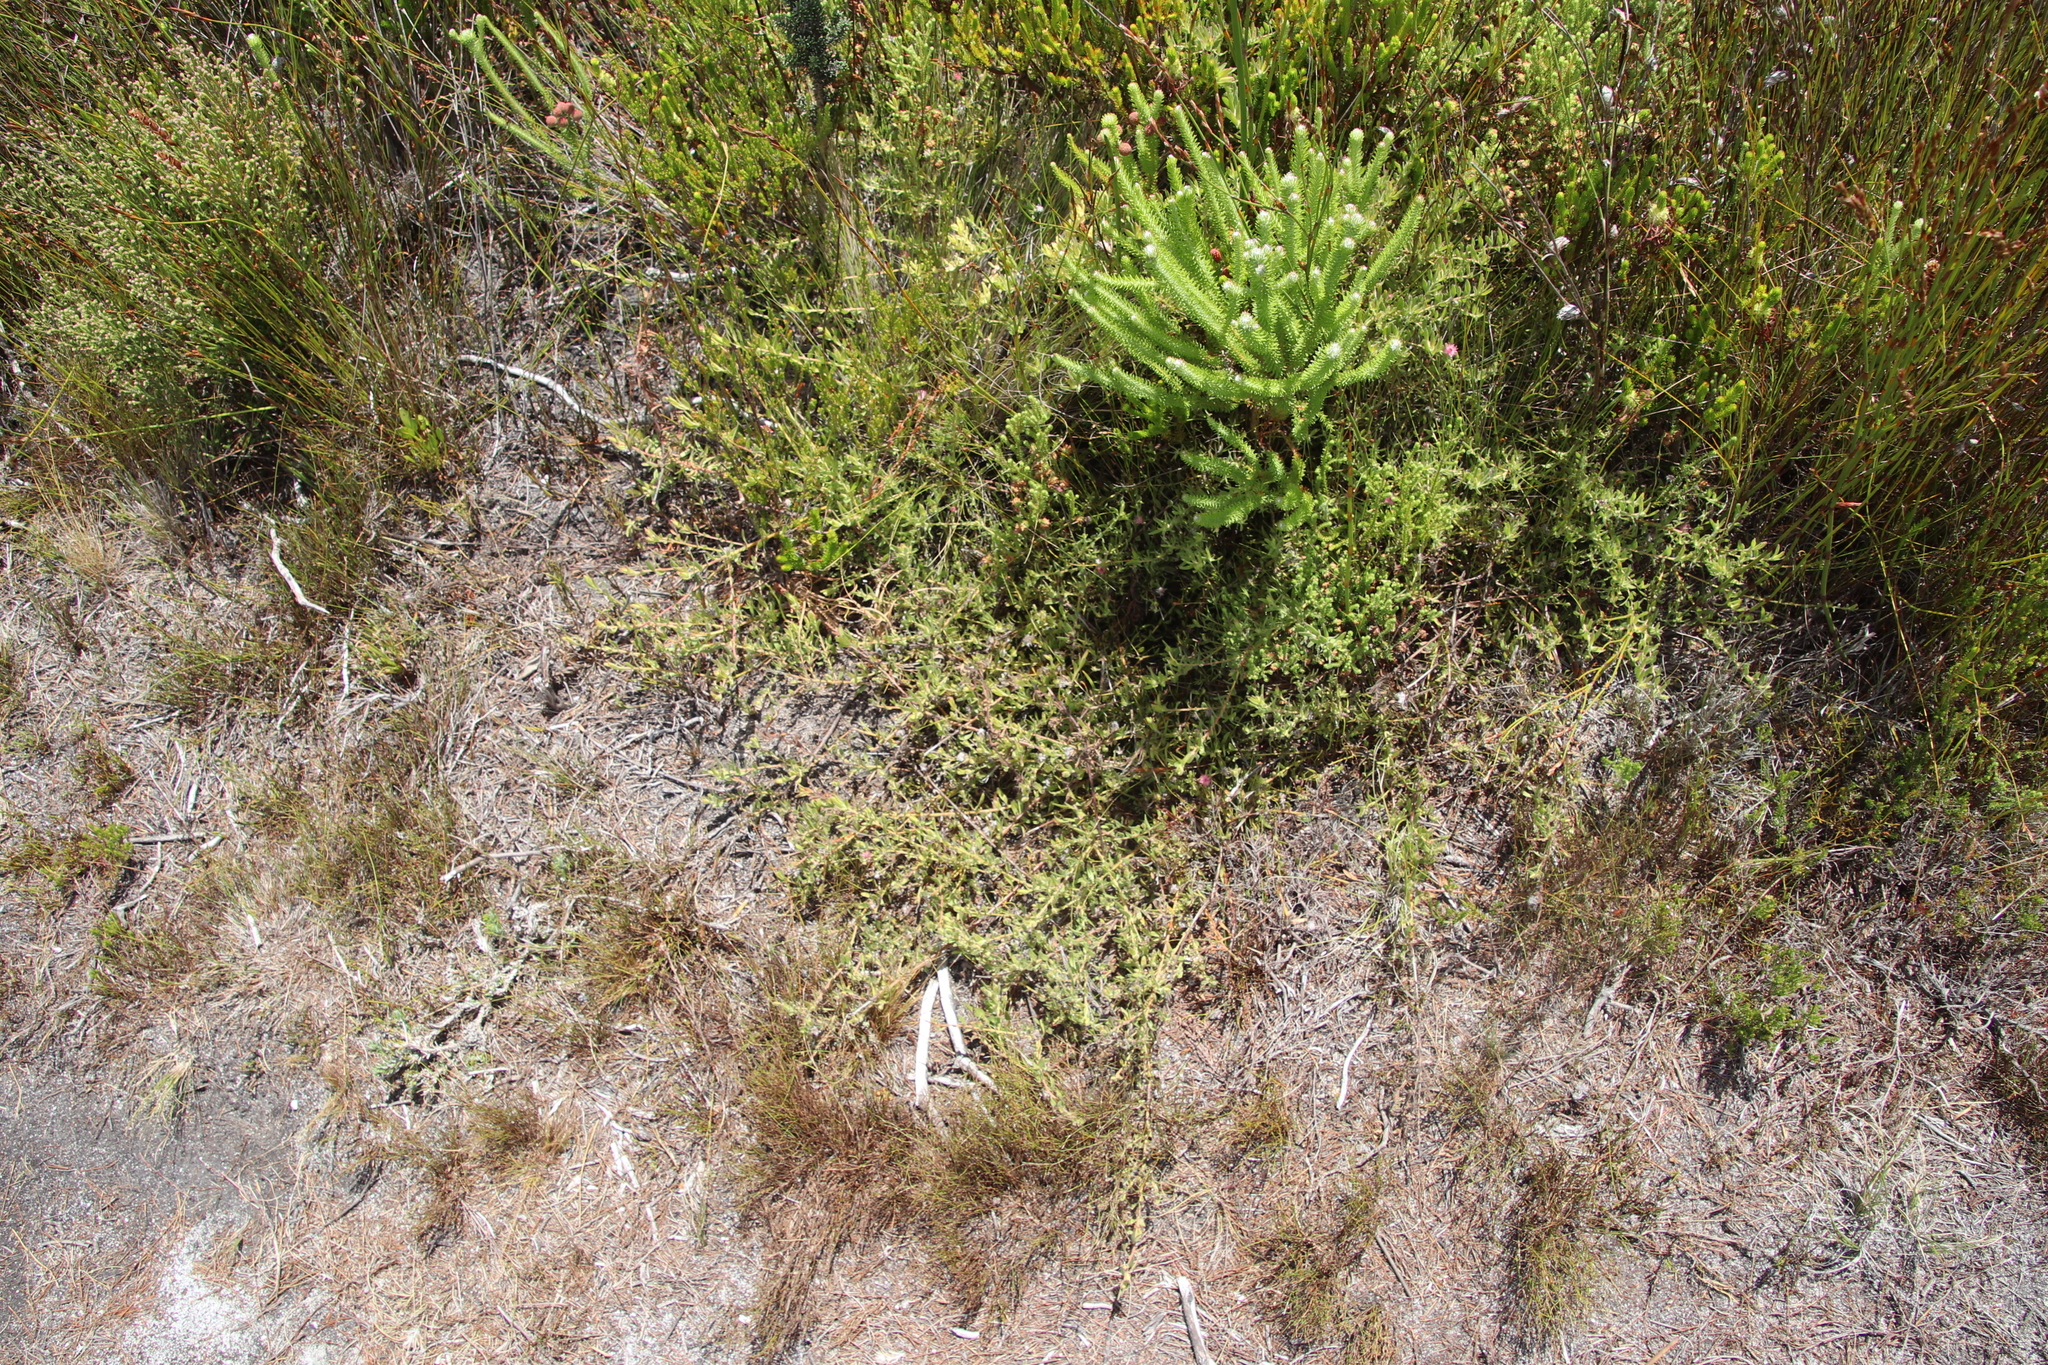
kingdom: Plantae
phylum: Tracheophyta
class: Magnoliopsida
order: Proteales
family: Proteaceae
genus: Diastella
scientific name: Diastella divaricata
